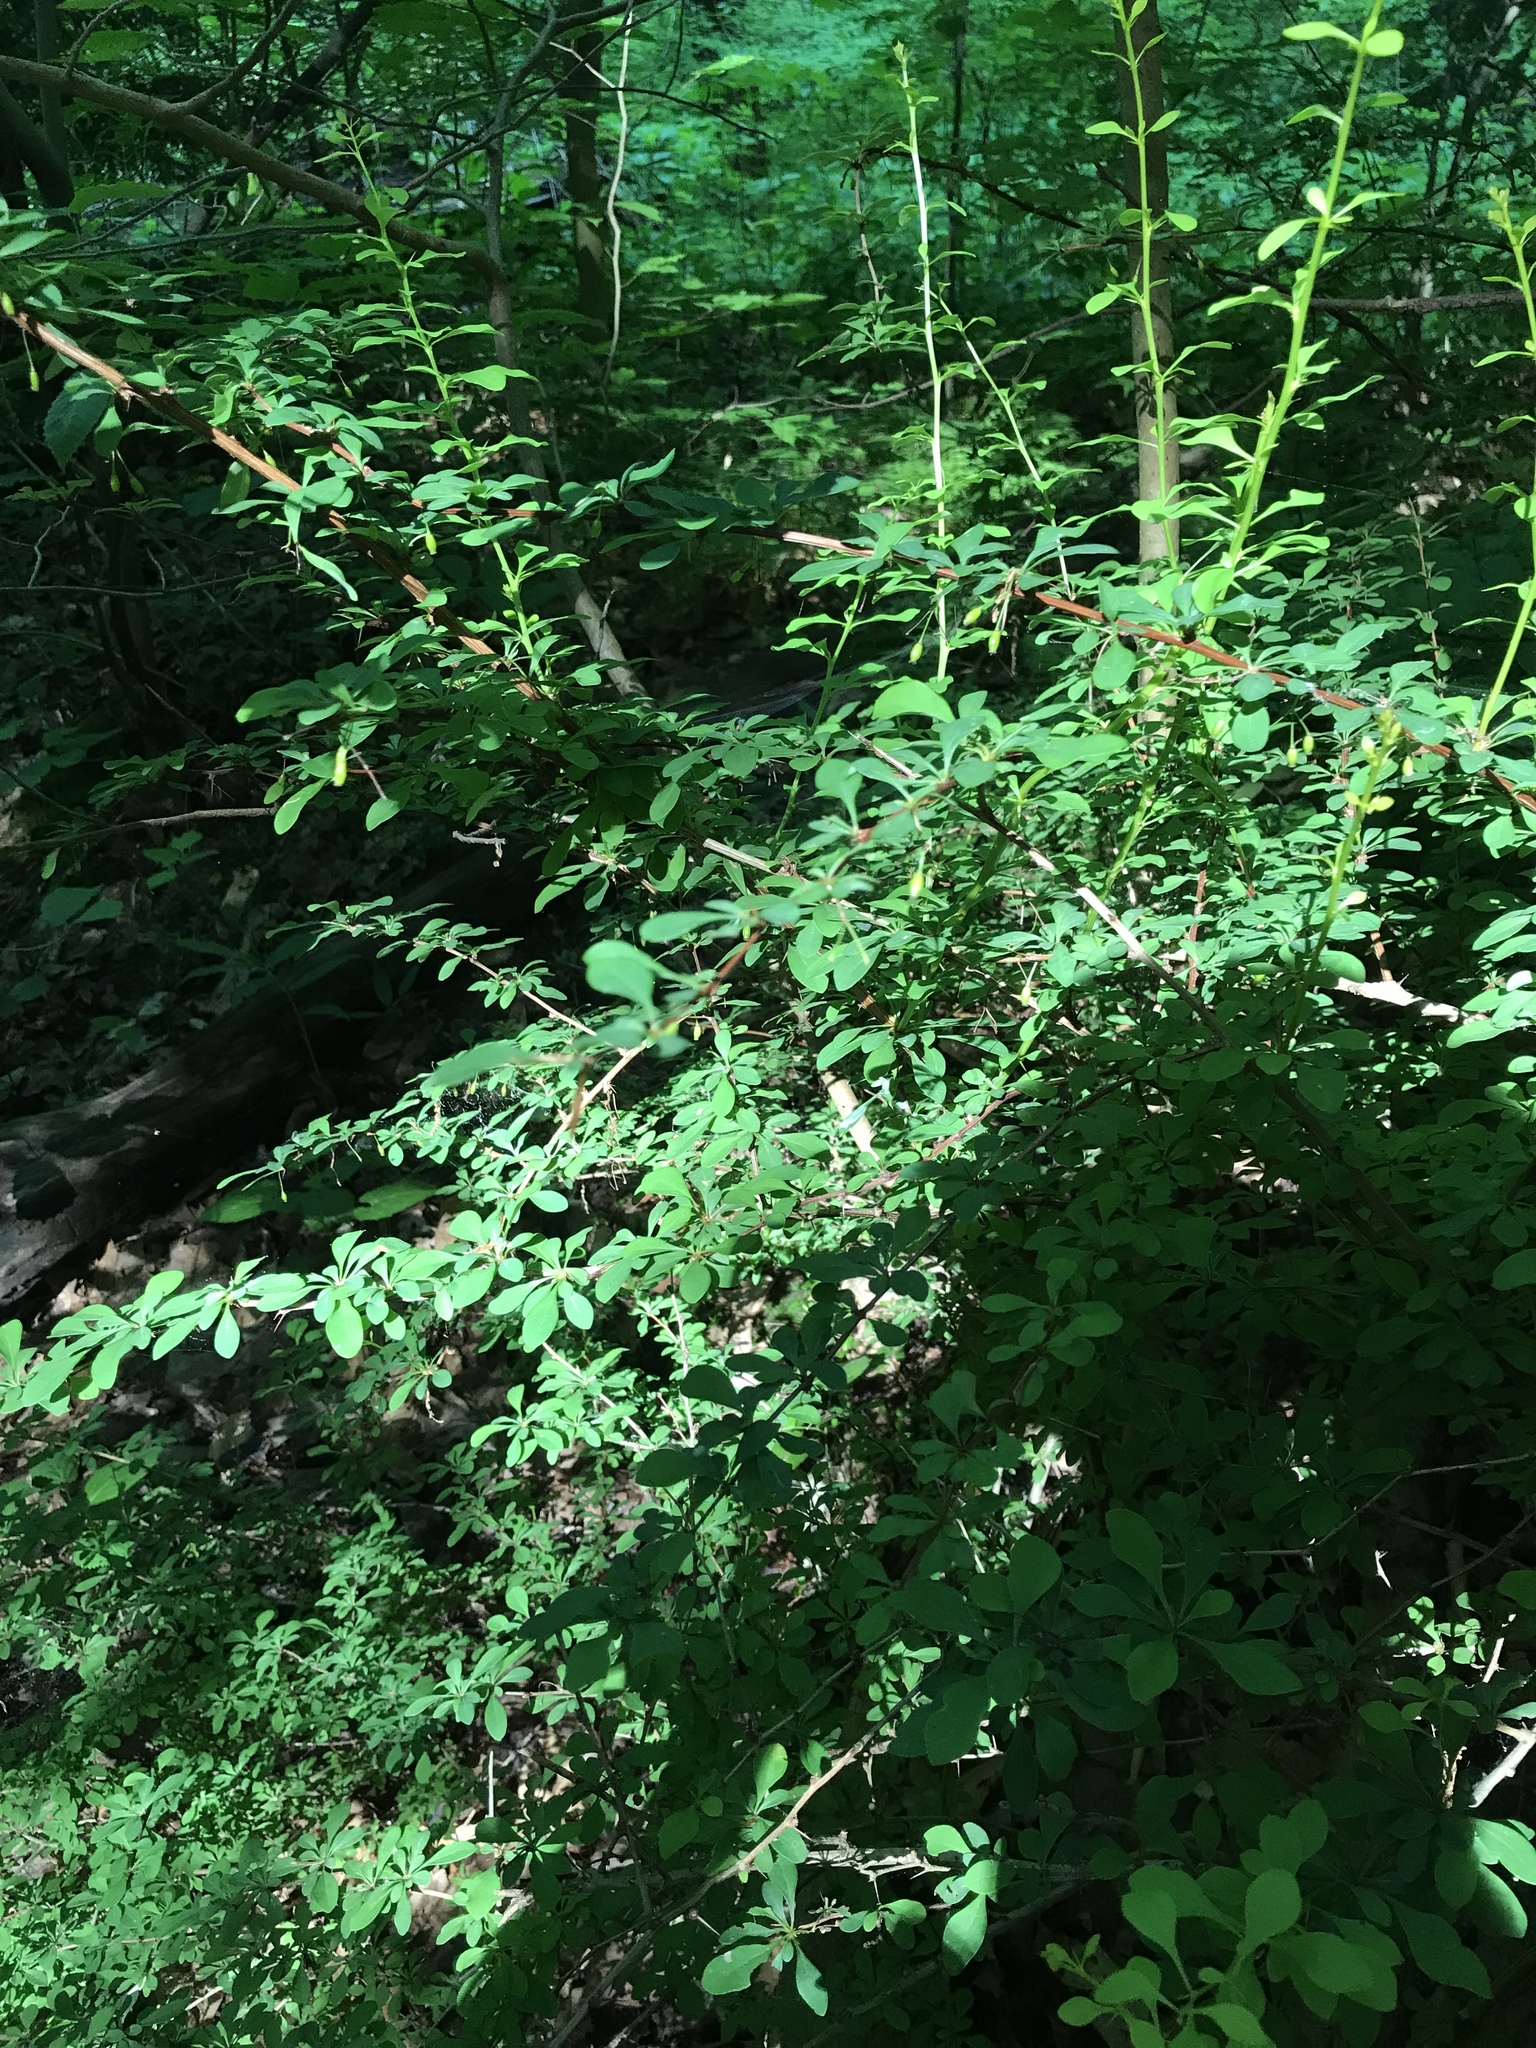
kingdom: Plantae
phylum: Tracheophyta
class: Magnoliopsida
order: Ranunculales
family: Berberidaceae
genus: Berberis
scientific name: Berberis thunbergii
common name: Japanese barberry
